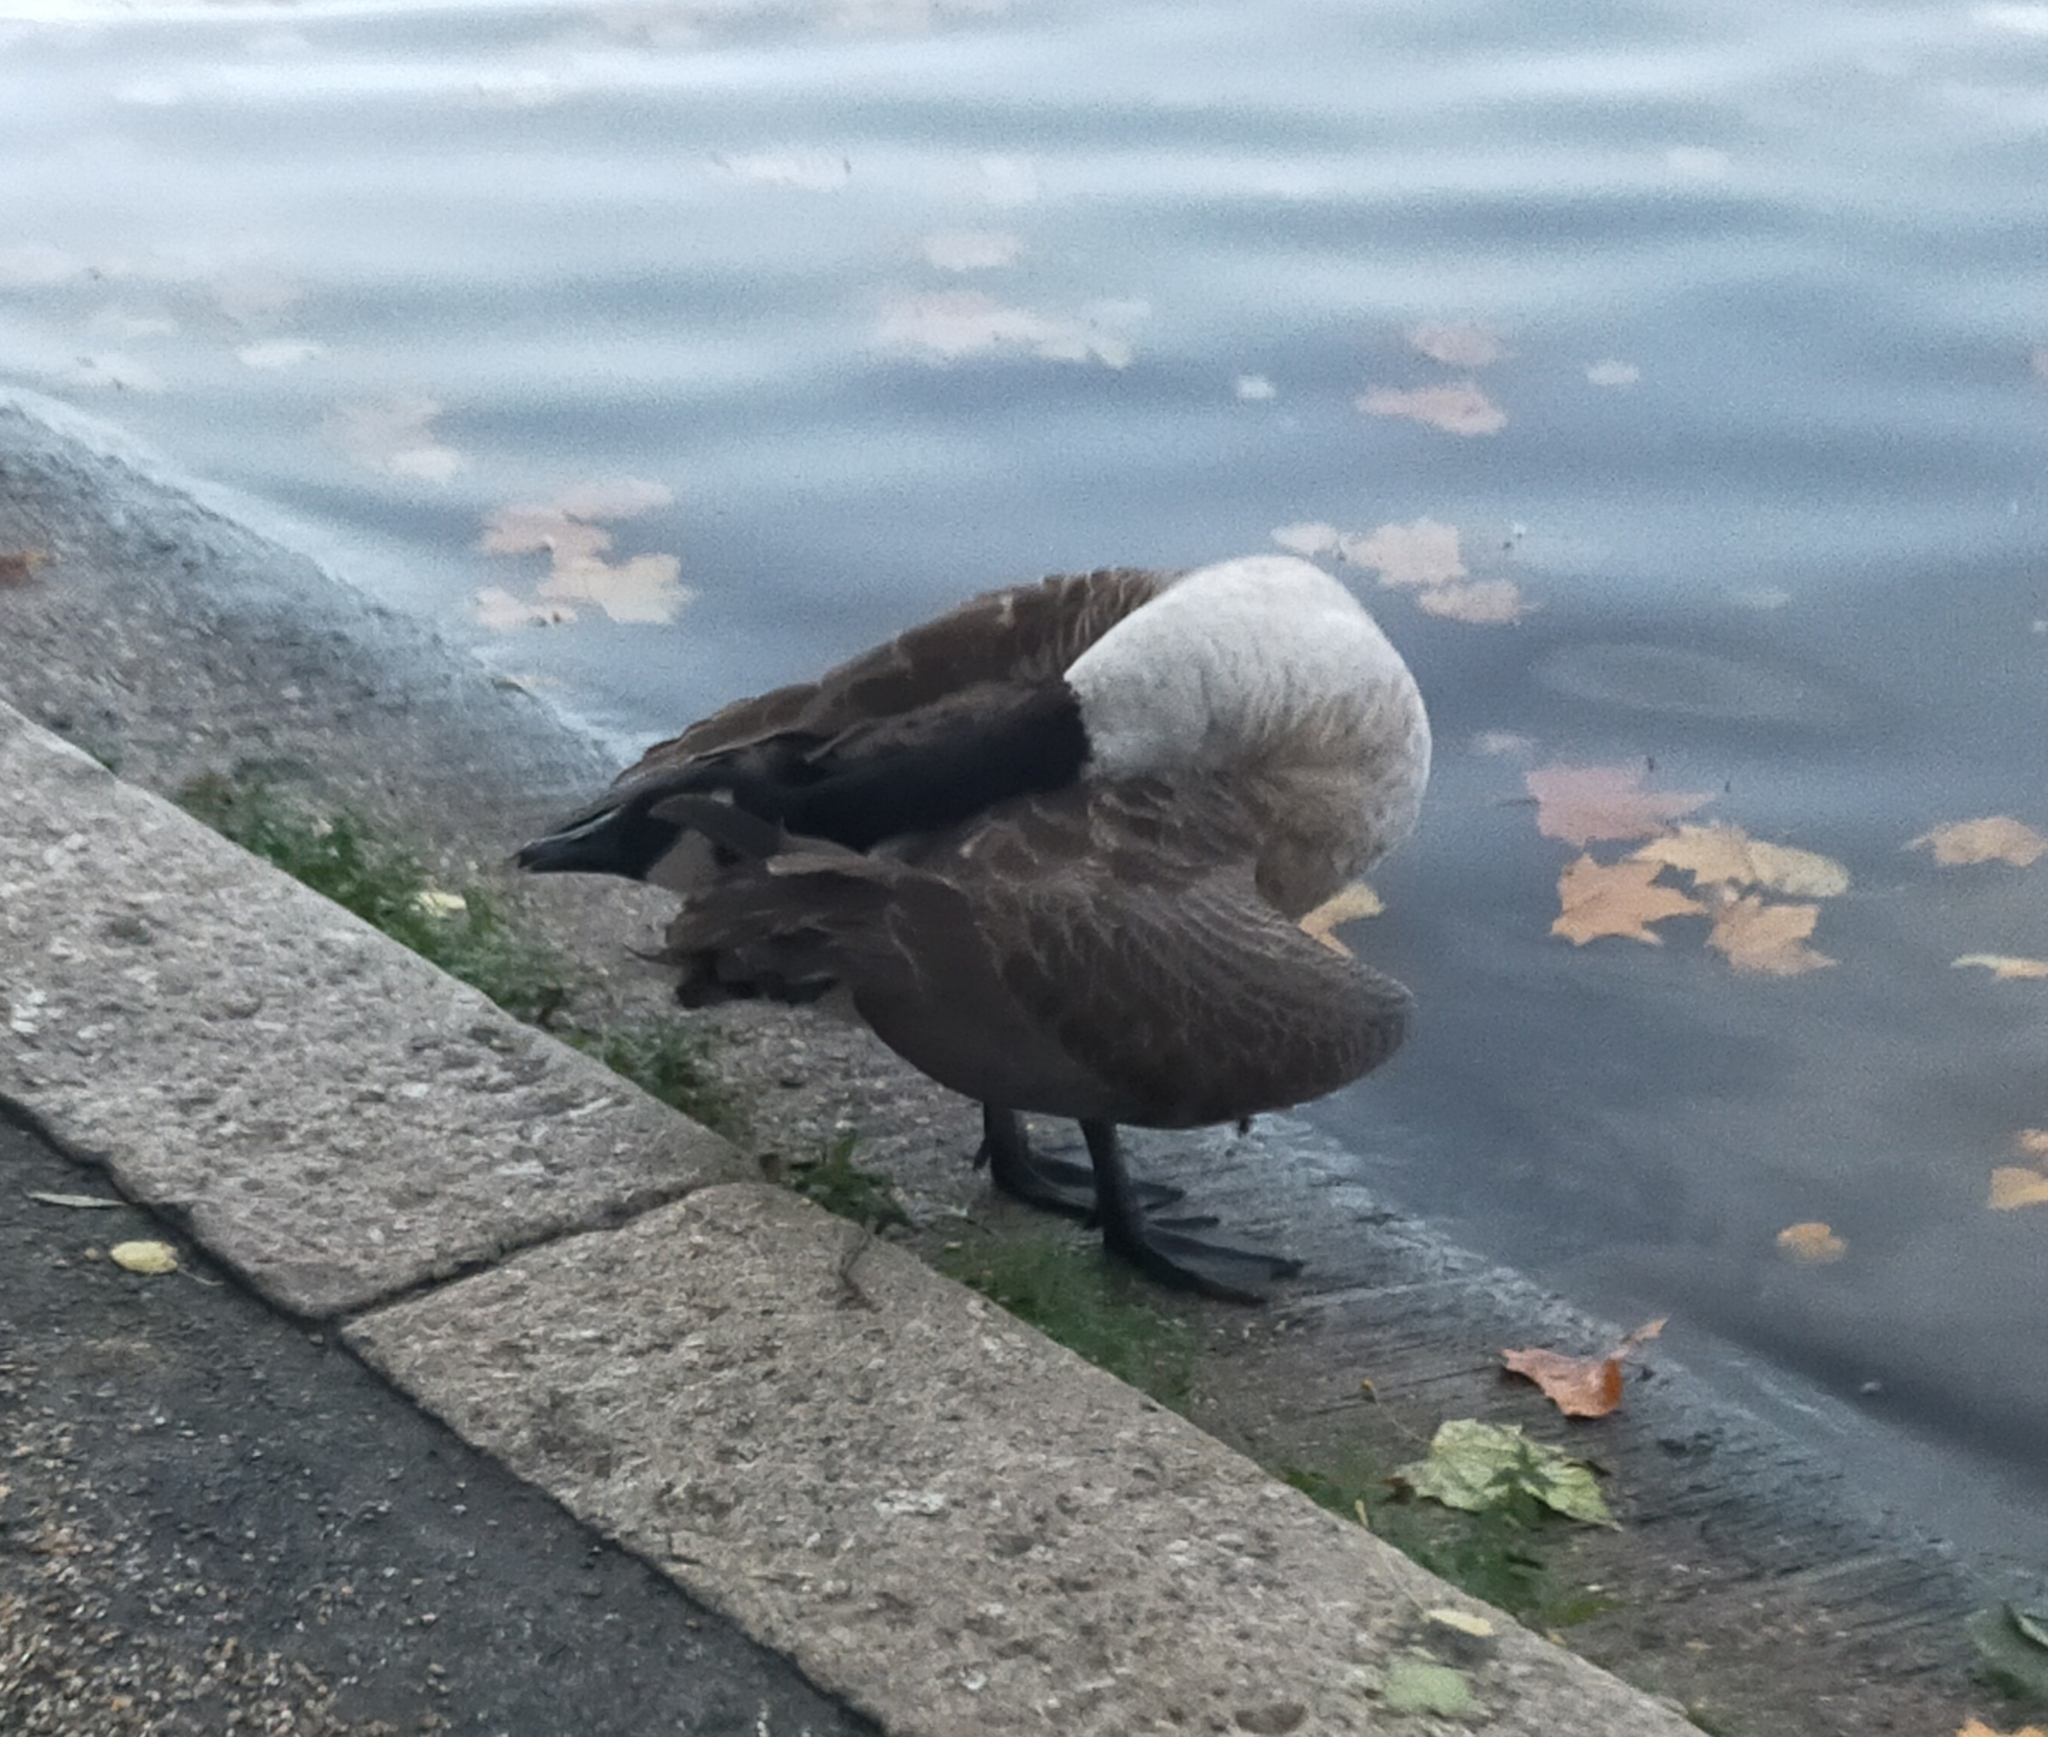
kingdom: Animalia
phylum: Chordata
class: Aves
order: Anseriformes
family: Anatidae
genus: Branta
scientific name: Branta canadensis
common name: Canada goose
